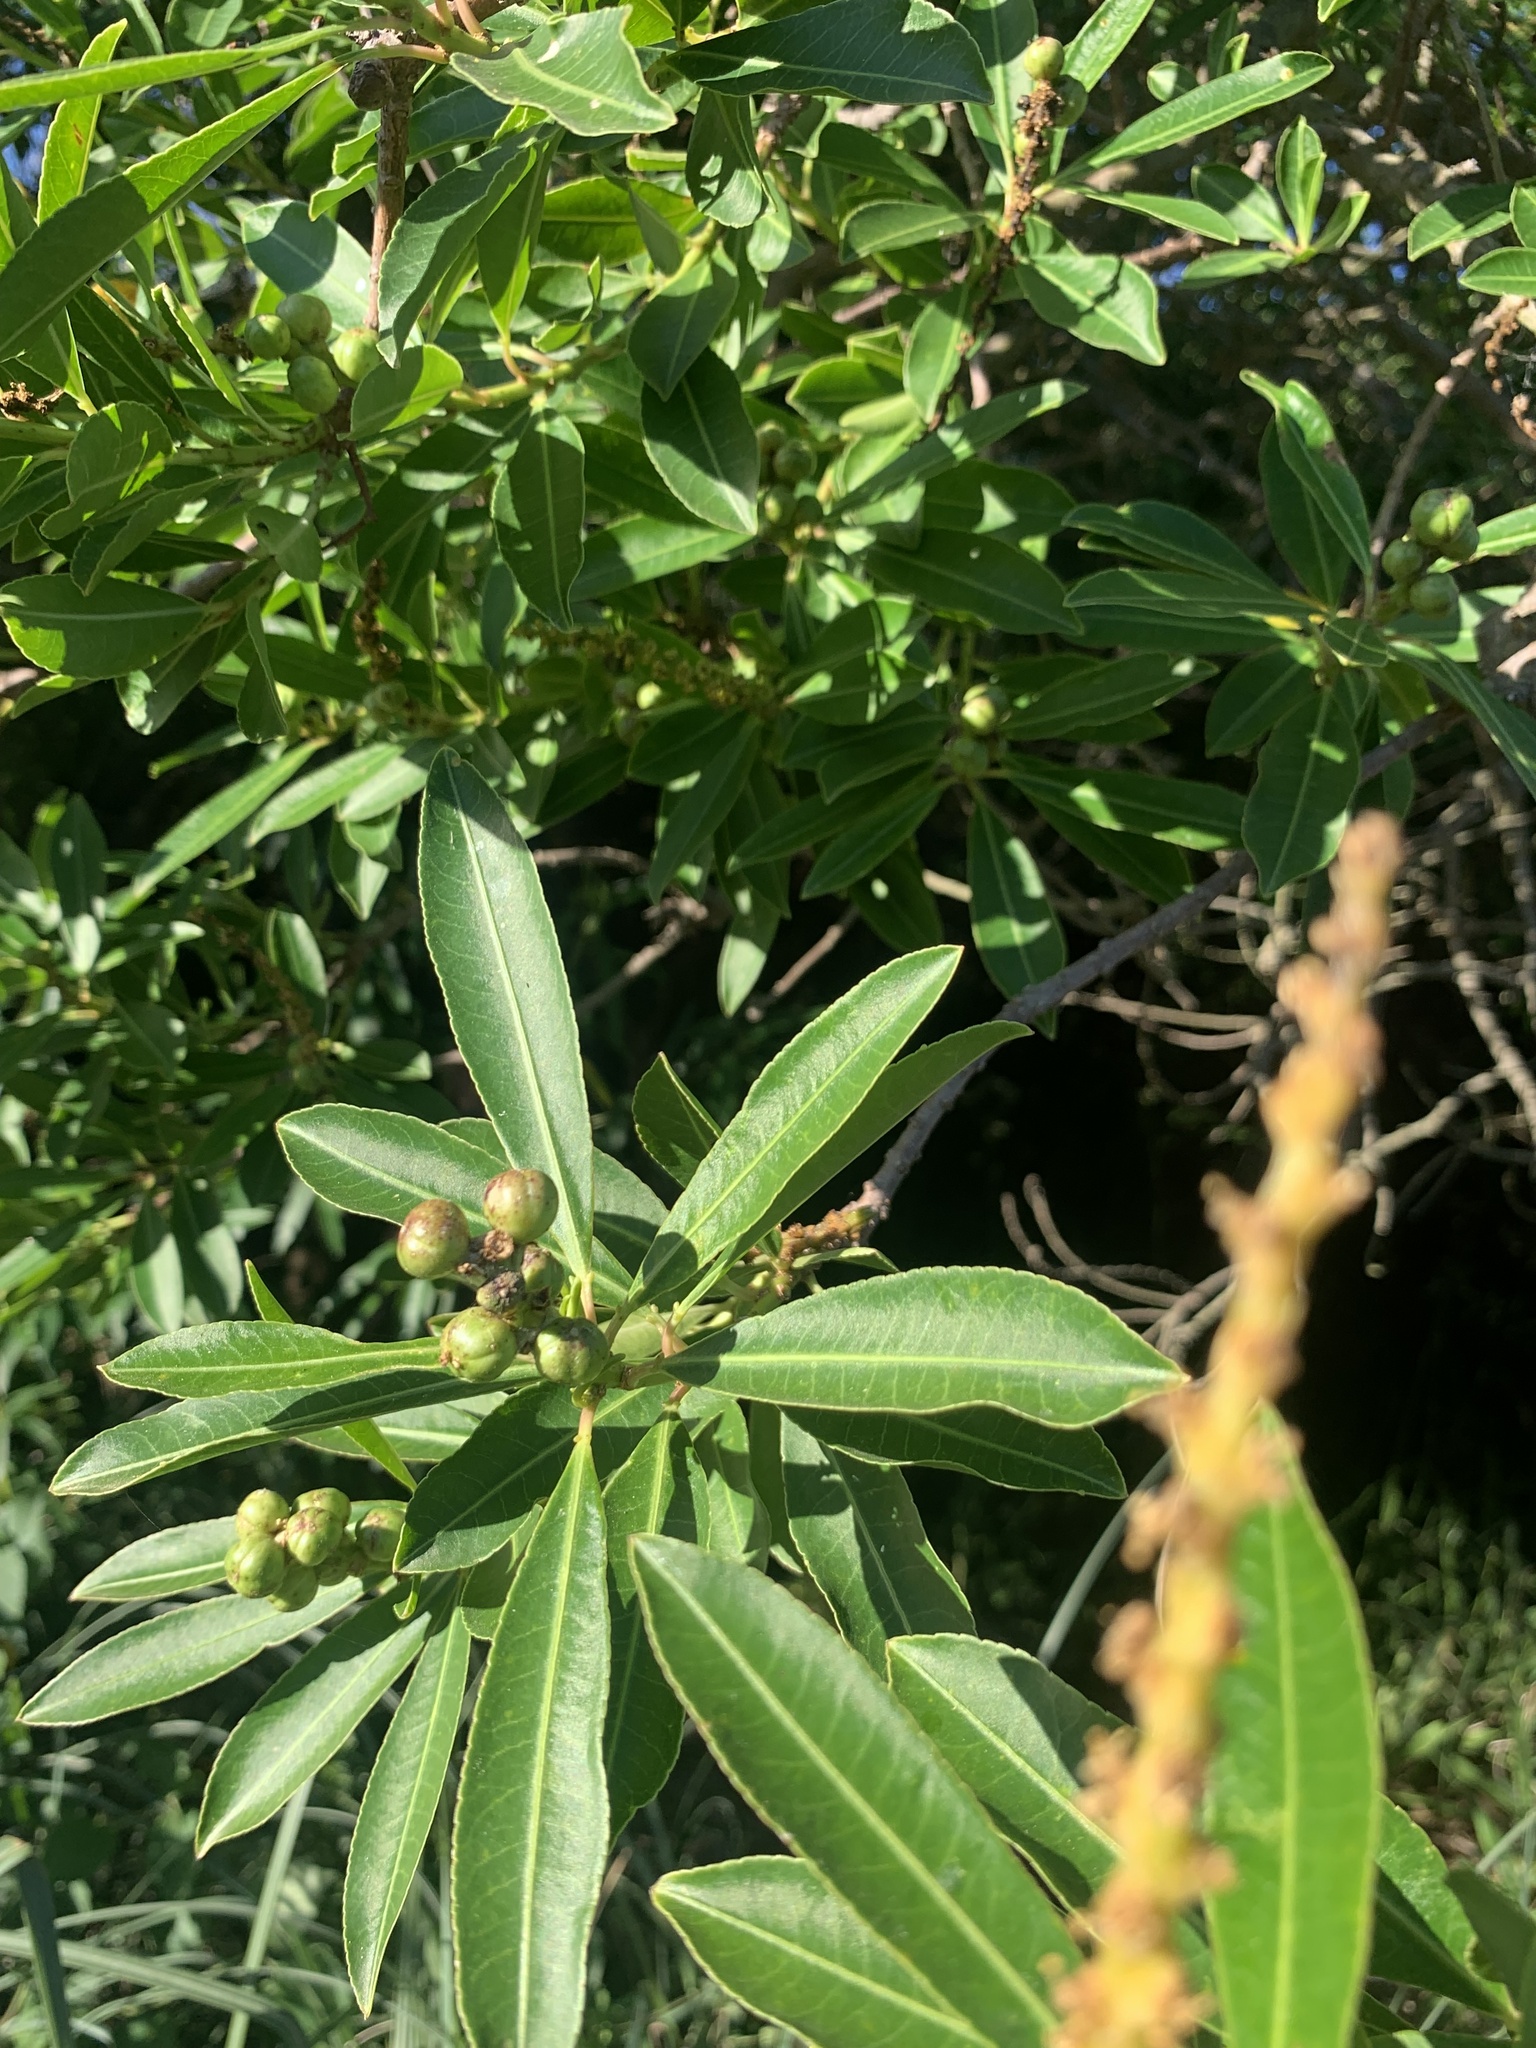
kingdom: Plantae
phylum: Tracheophyta
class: Magnoliopsida
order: Malpighiales
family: Euphorbiaceae
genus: Sapium
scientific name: Sapium glandulosum
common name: Milktree
